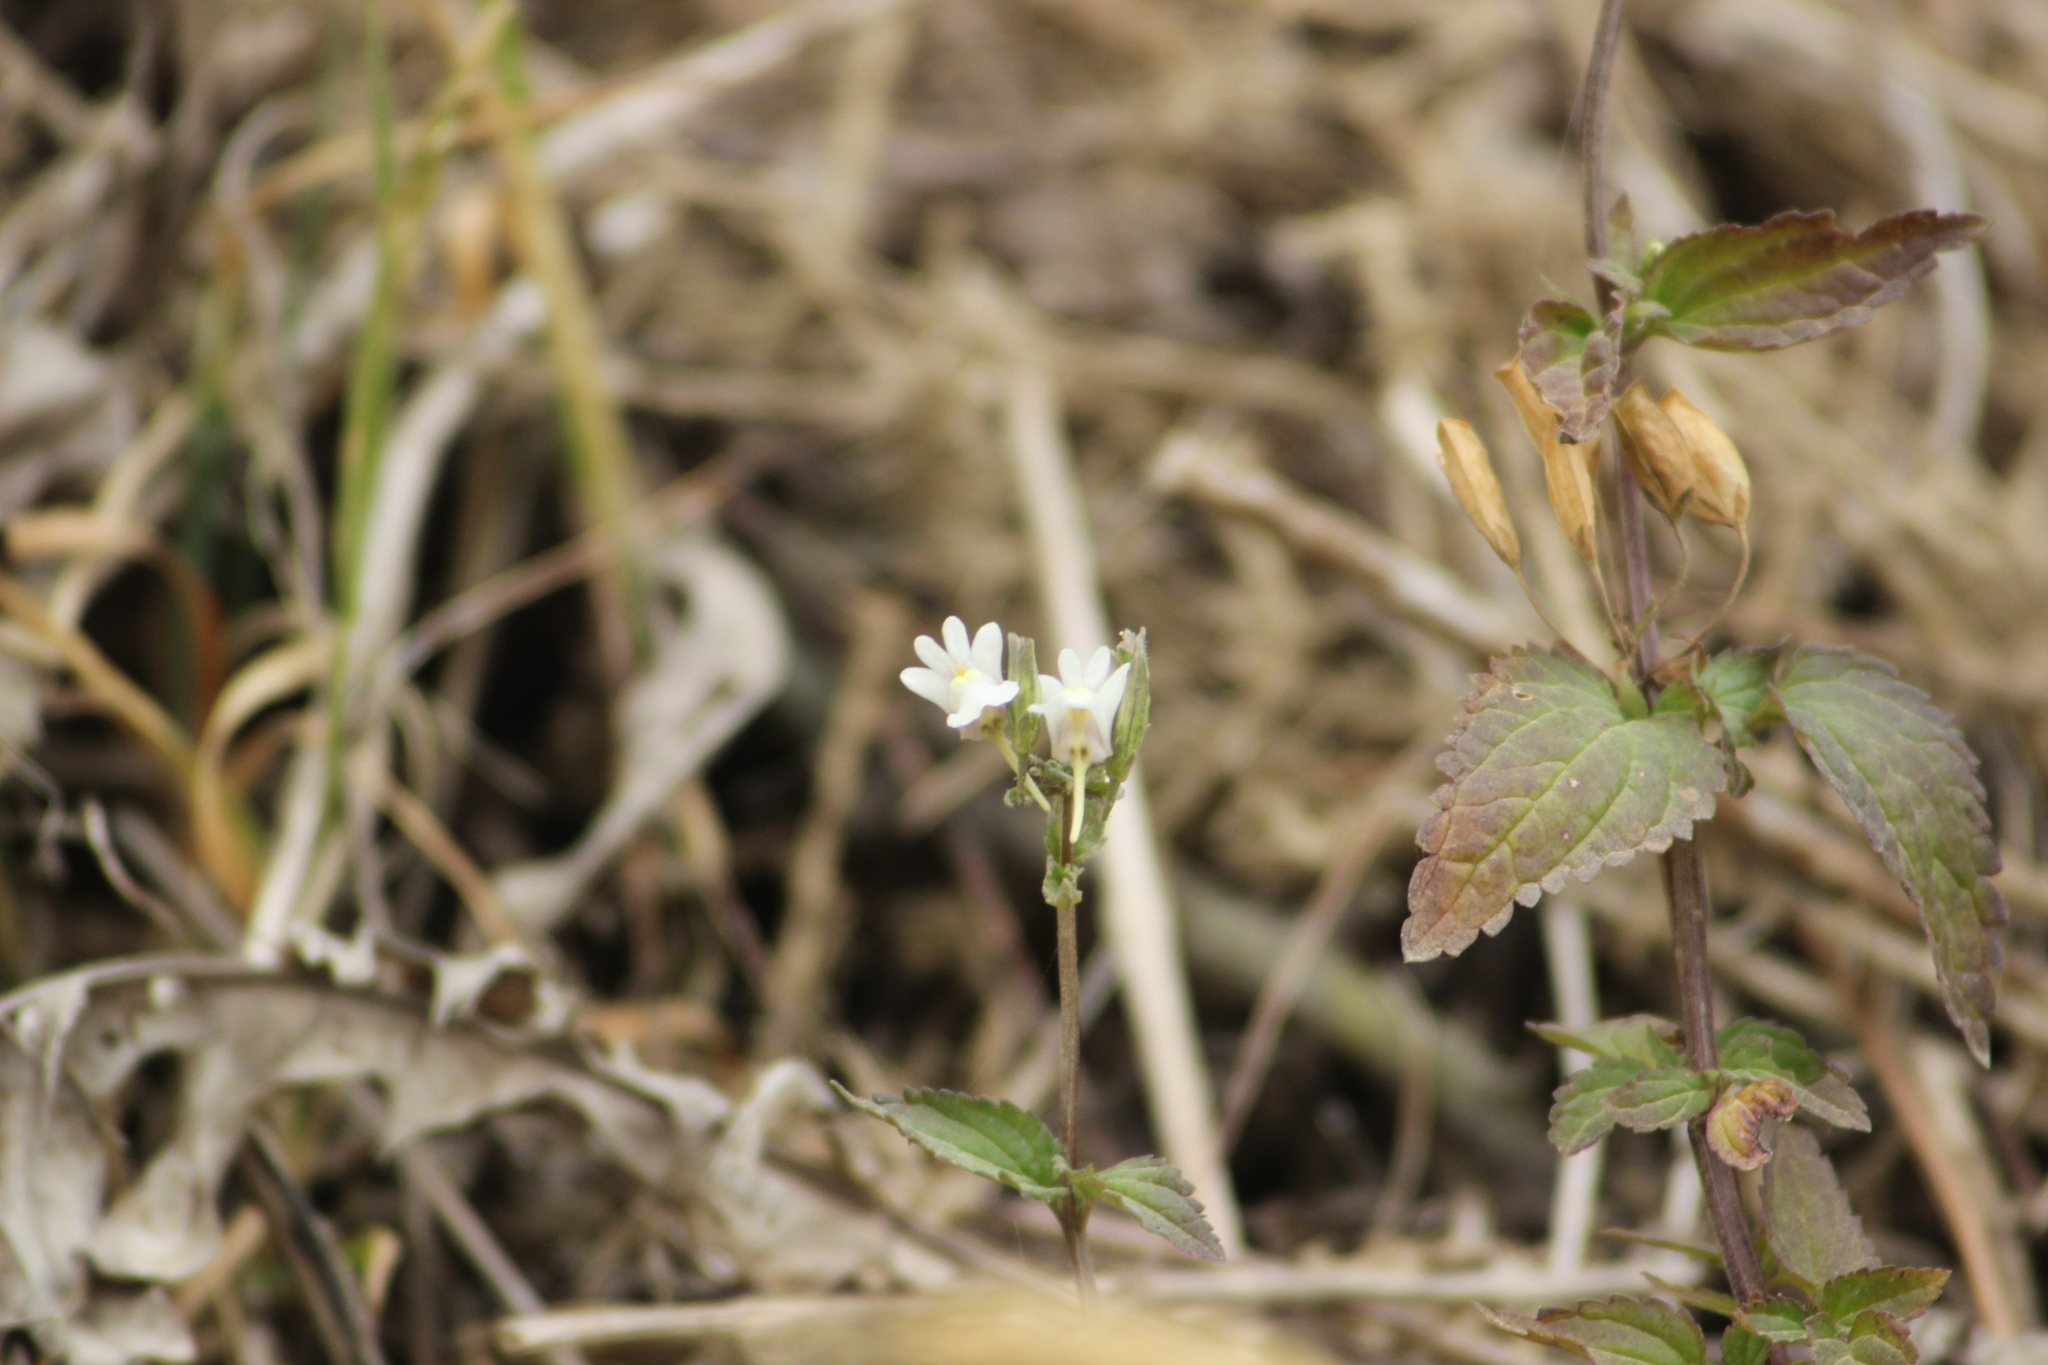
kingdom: Plantae
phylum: Tracheophyta
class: Magnoliopsida
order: Lamiales
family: Scrophulariaceae
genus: Nemesia
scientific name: Nemesia floribunda
